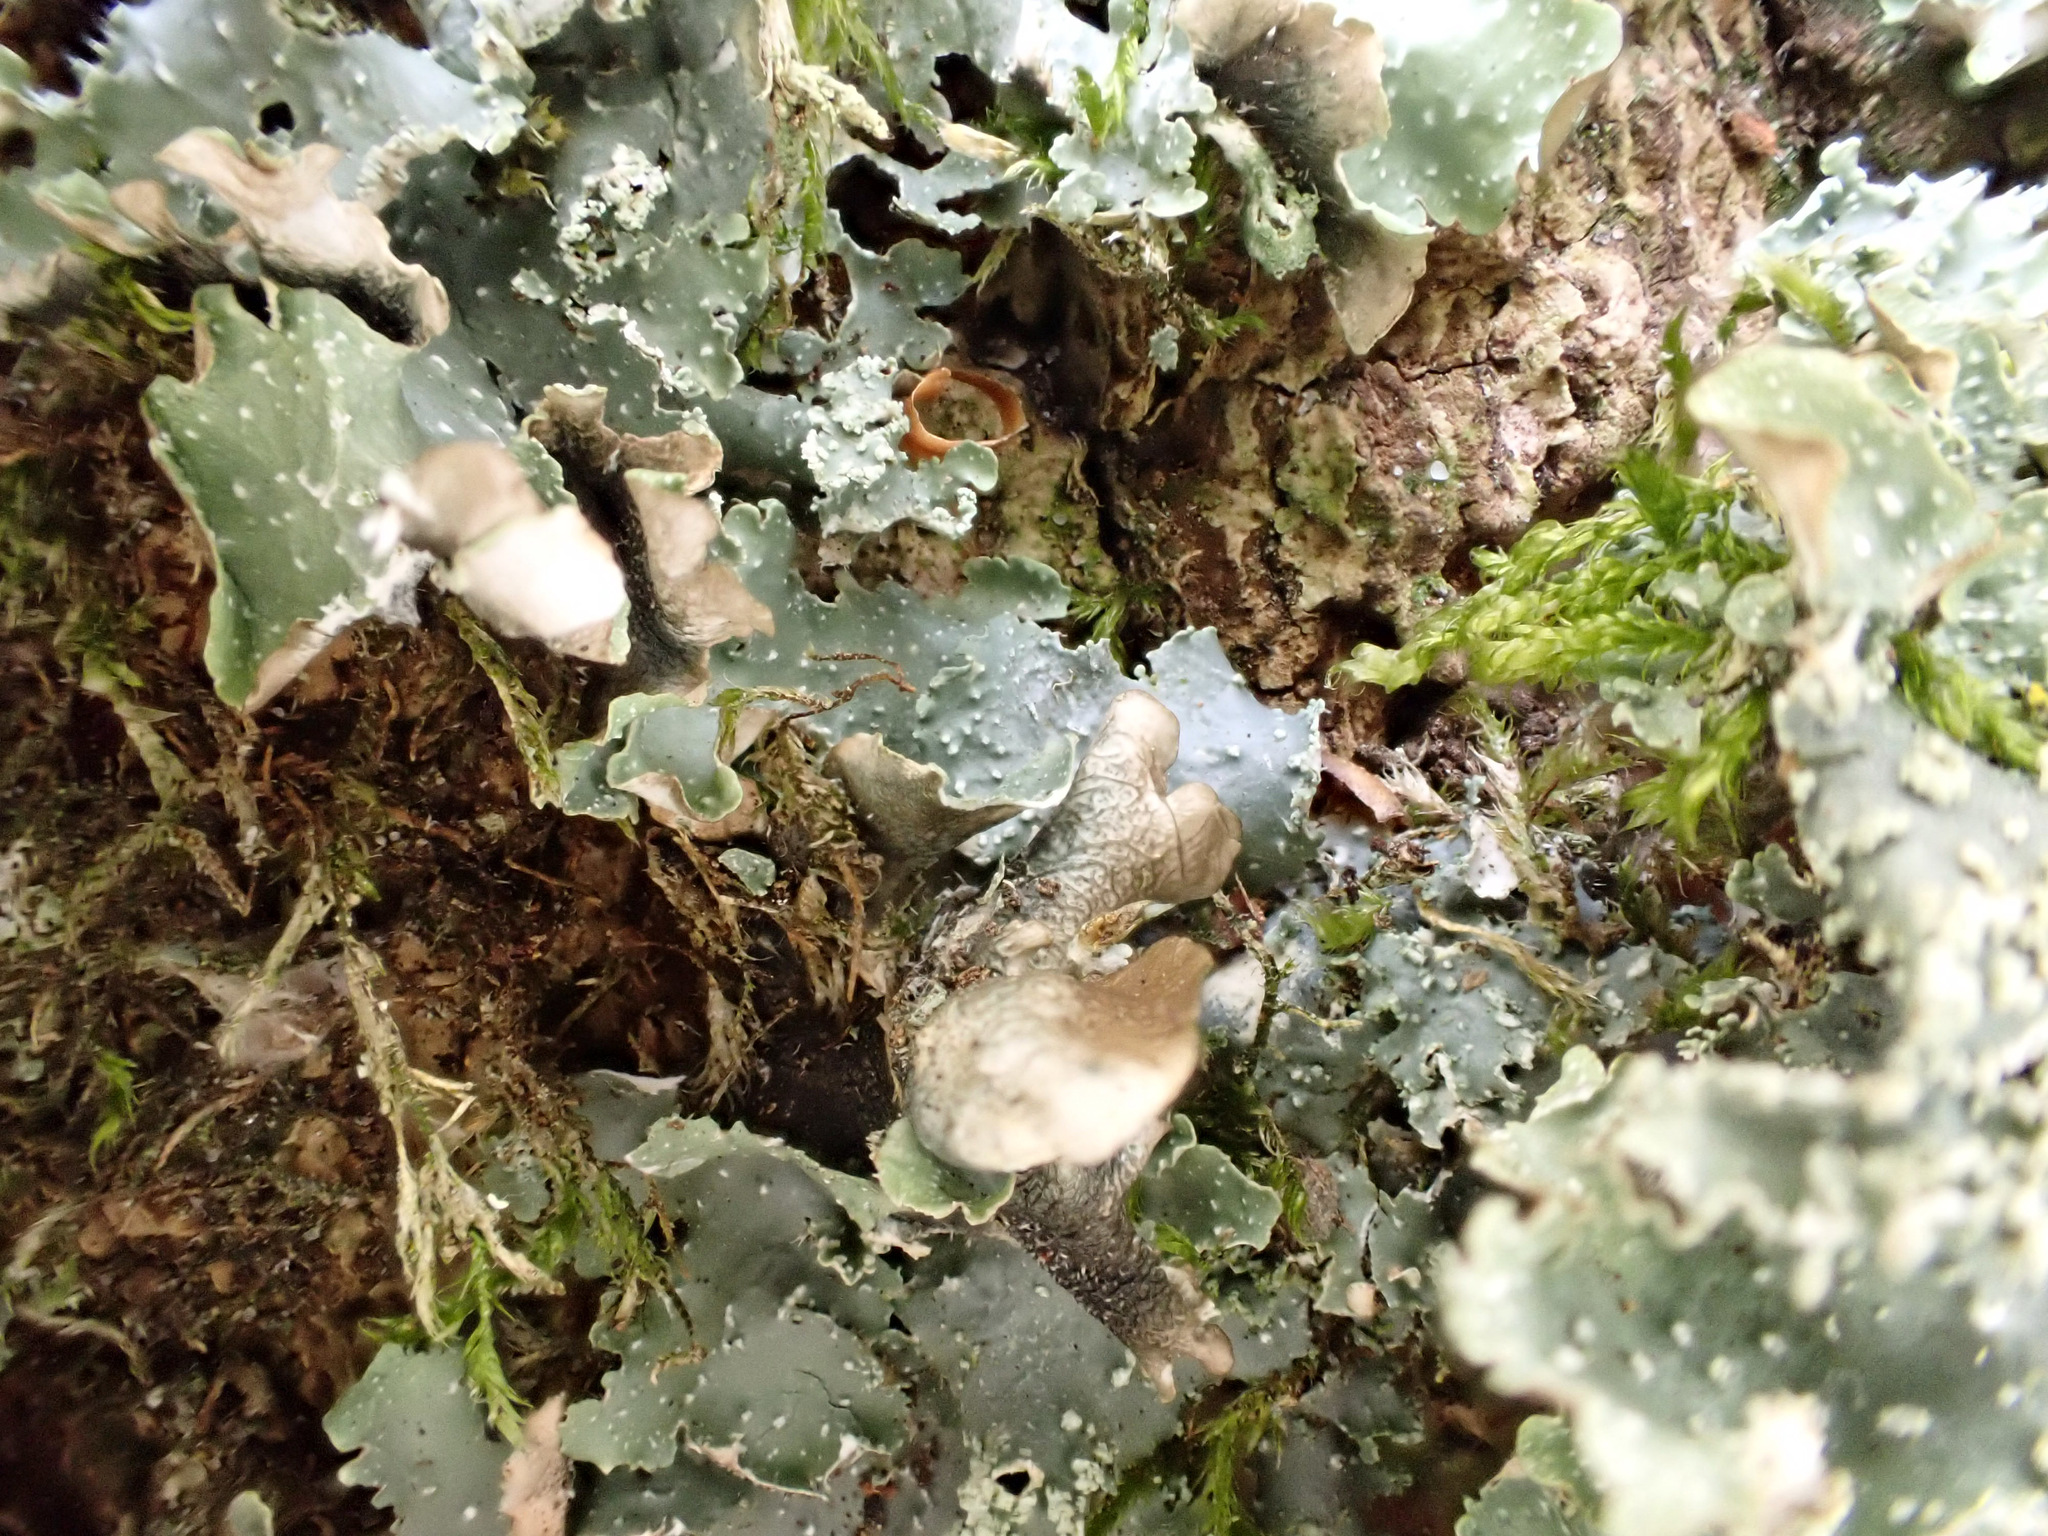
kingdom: Fungi
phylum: Ascomycota
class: Lecanoromycetes
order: Lecanorales
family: Parmeliaceae
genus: Punctelia
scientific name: Punctelia subrudecta
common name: Powdered speckled shield lichen
